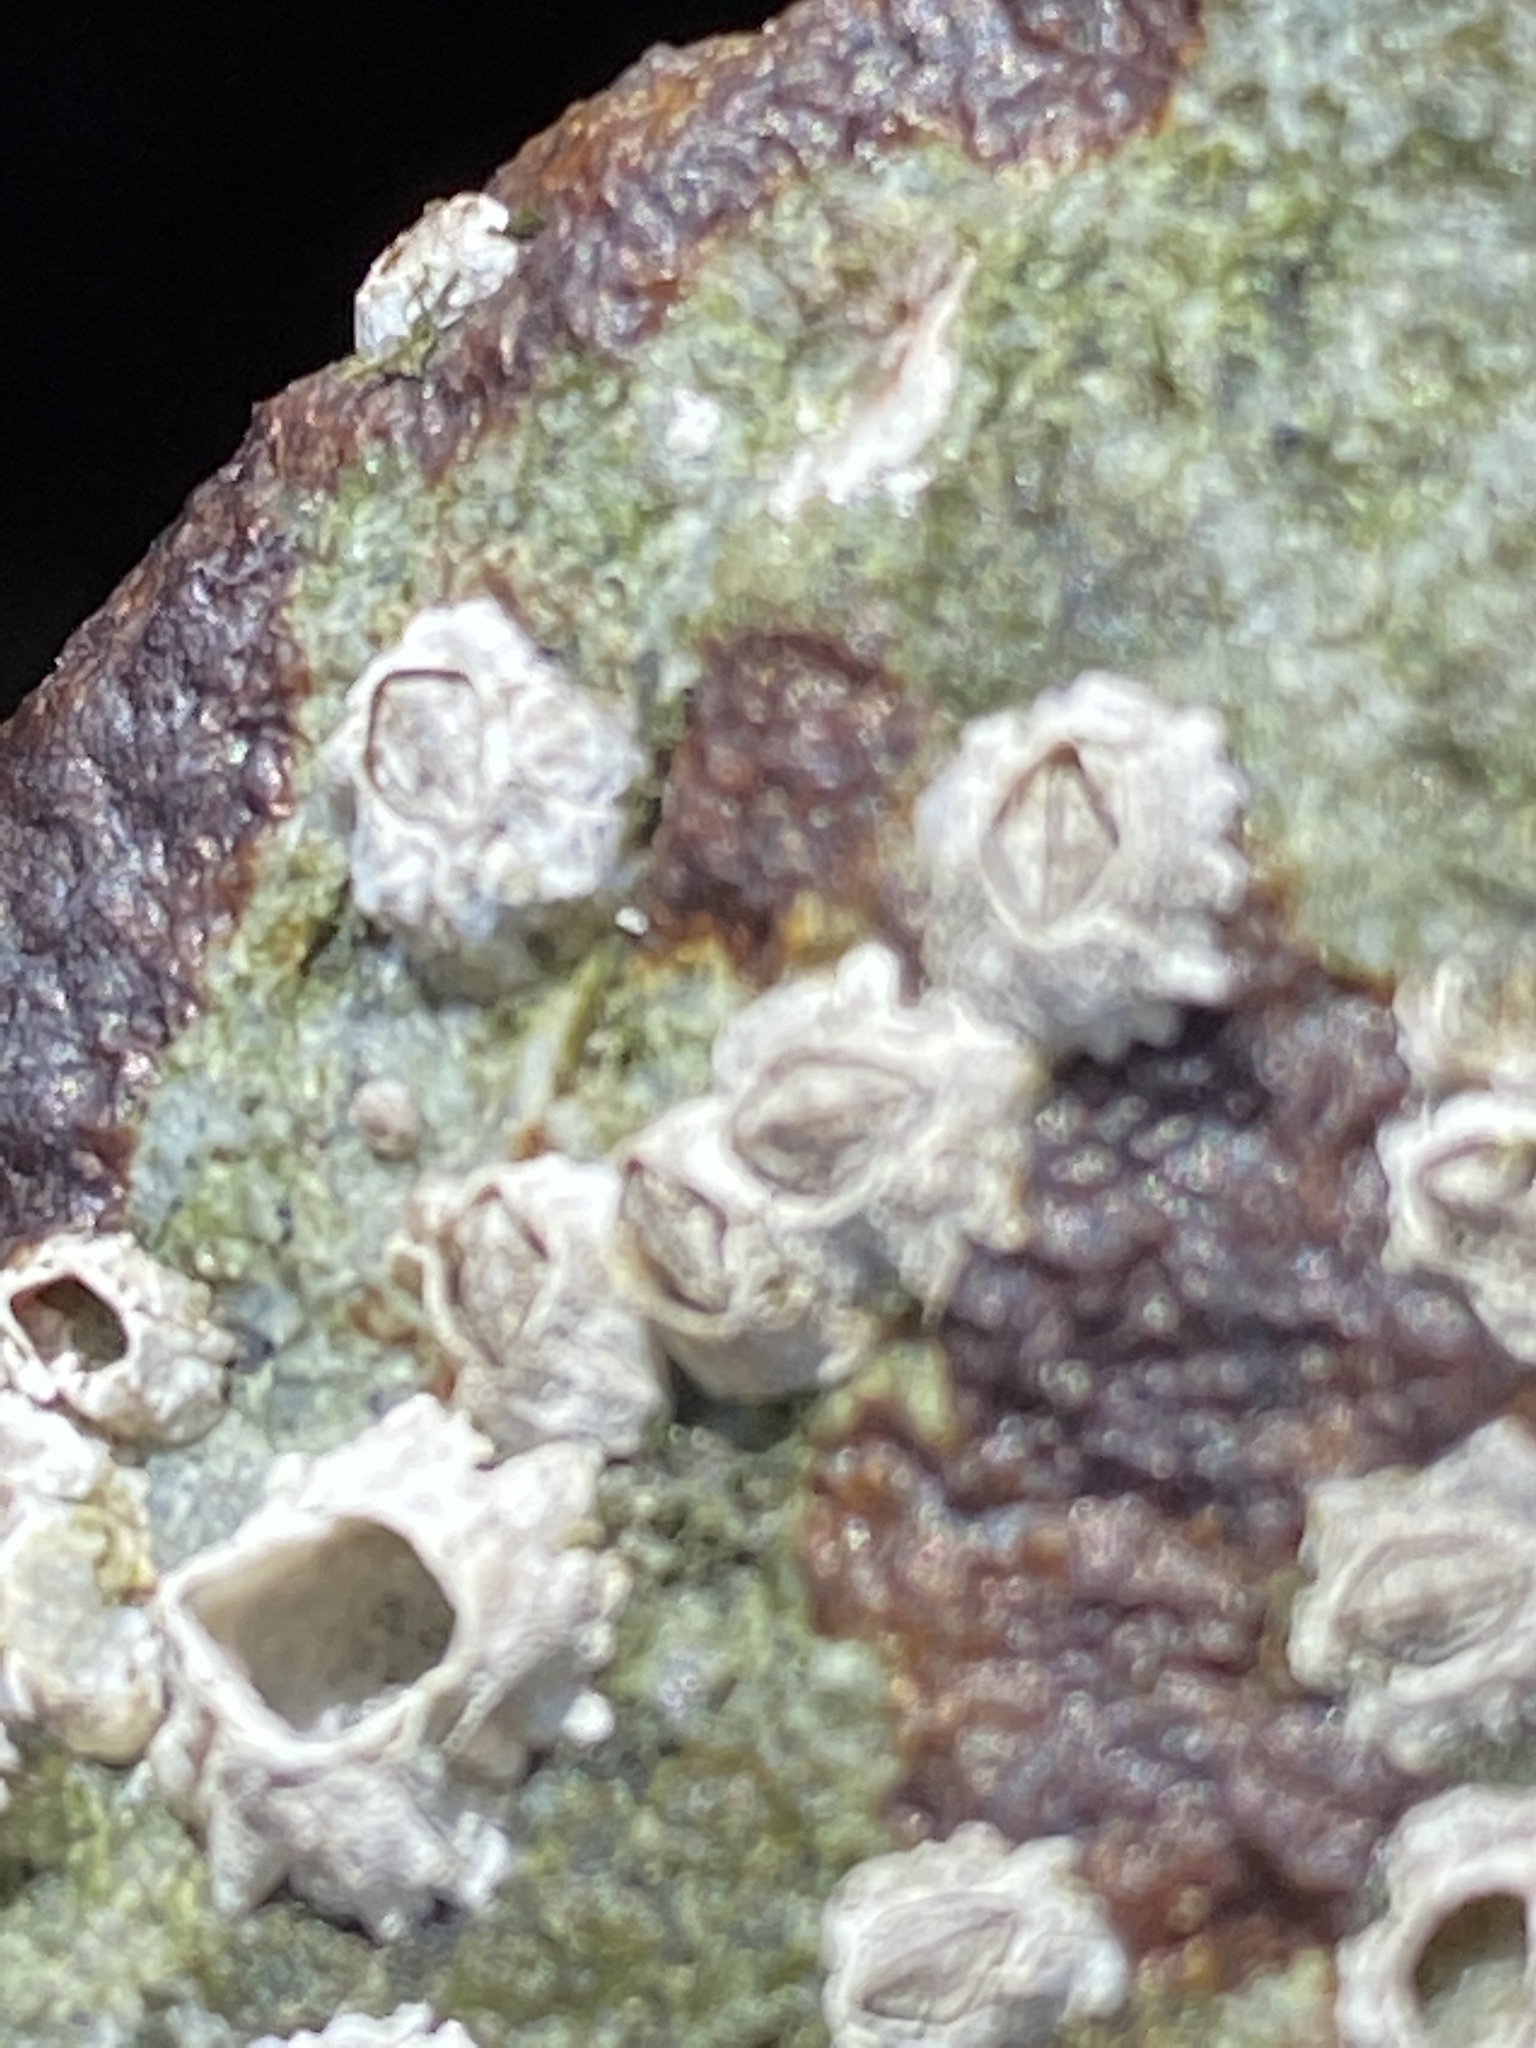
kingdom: Animalia
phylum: Arthropoda
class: Maxillopoda
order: Sessilia
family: Balanidae
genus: Balanus
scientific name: Balanus glandula
